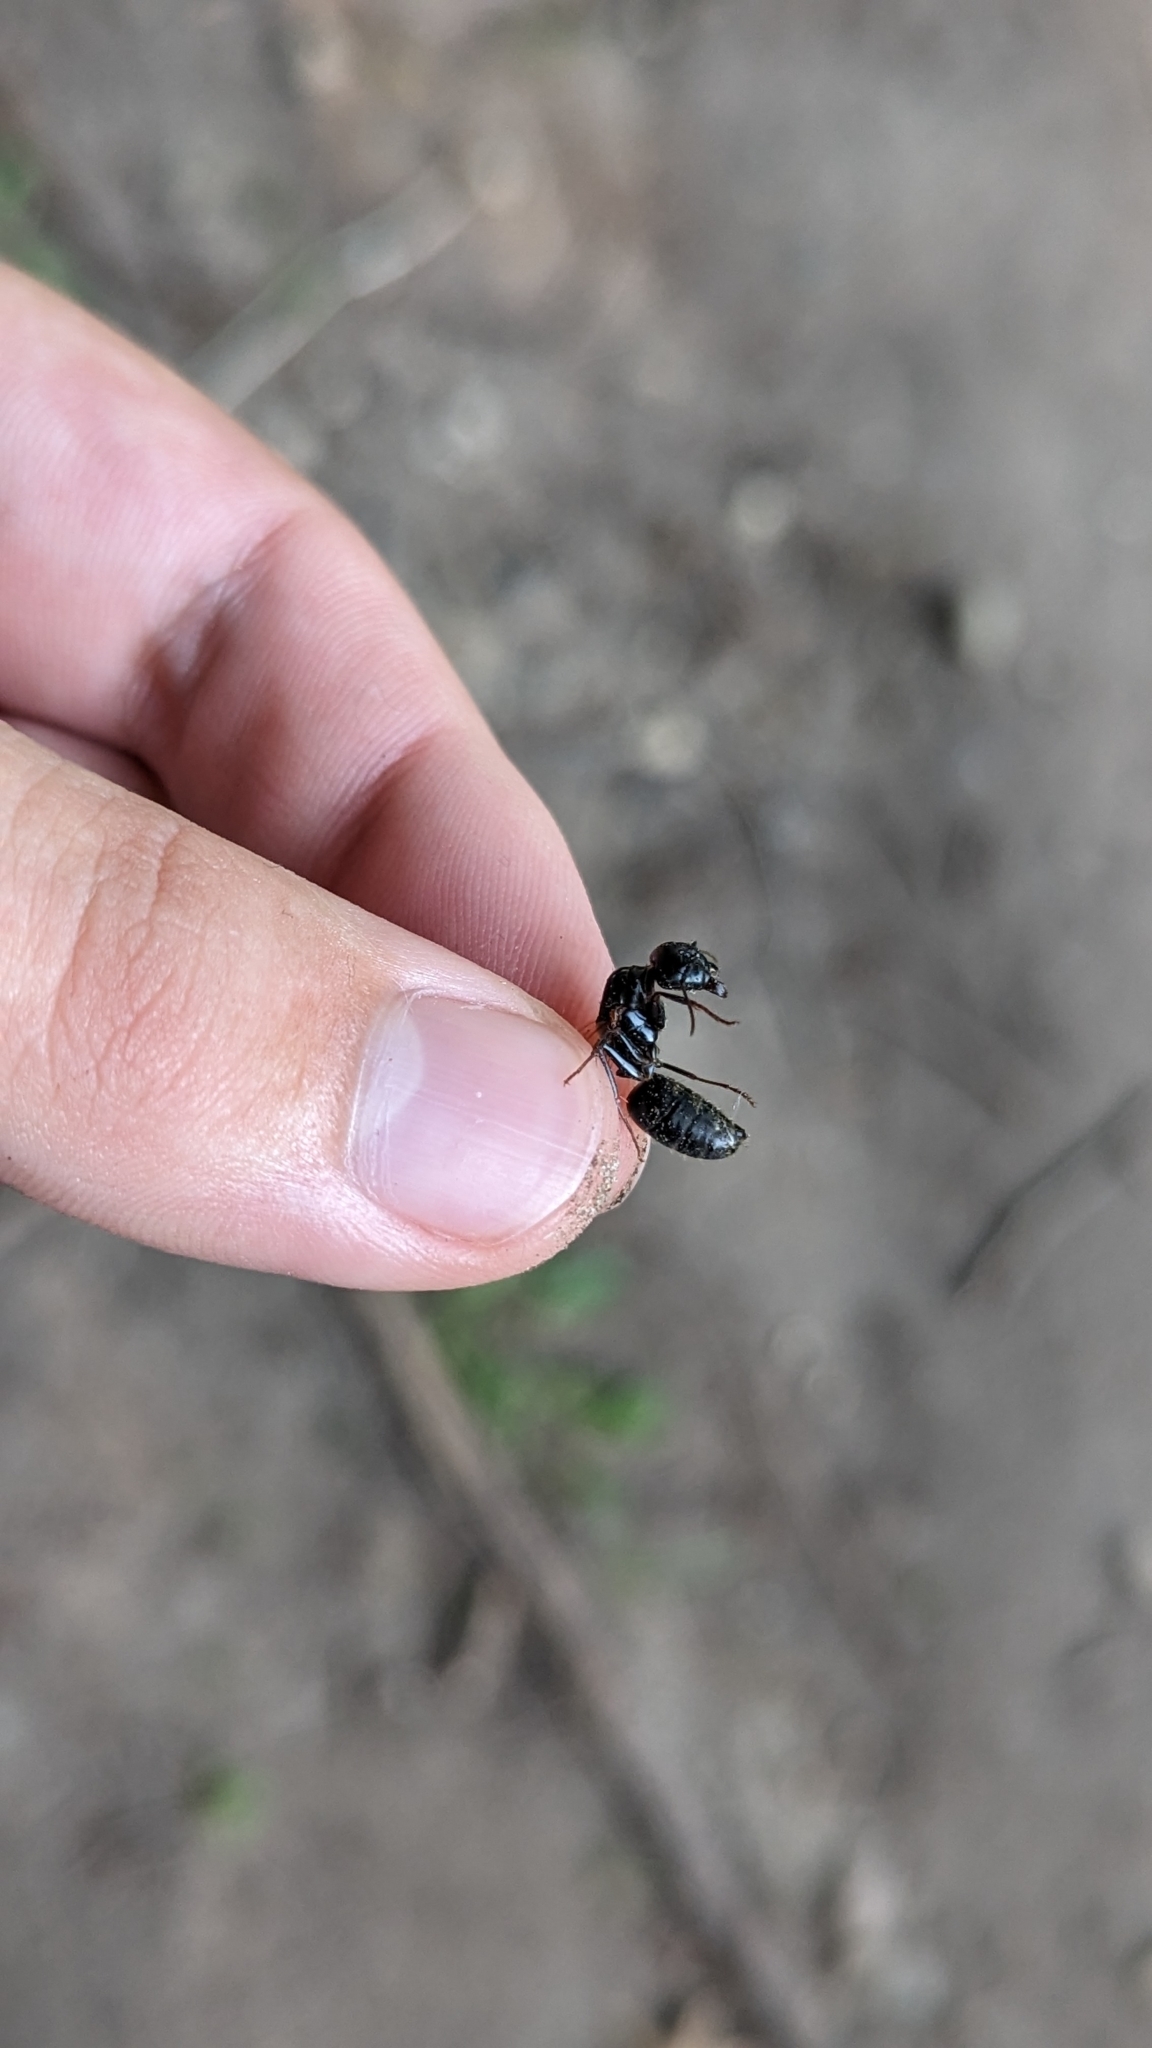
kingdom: Animalia
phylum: Arthropoda
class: Insecta
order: Hymenoptera
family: Formicidae
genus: Camponotus
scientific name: Camponotus pennsylvanicus
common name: Black carpenter ant
